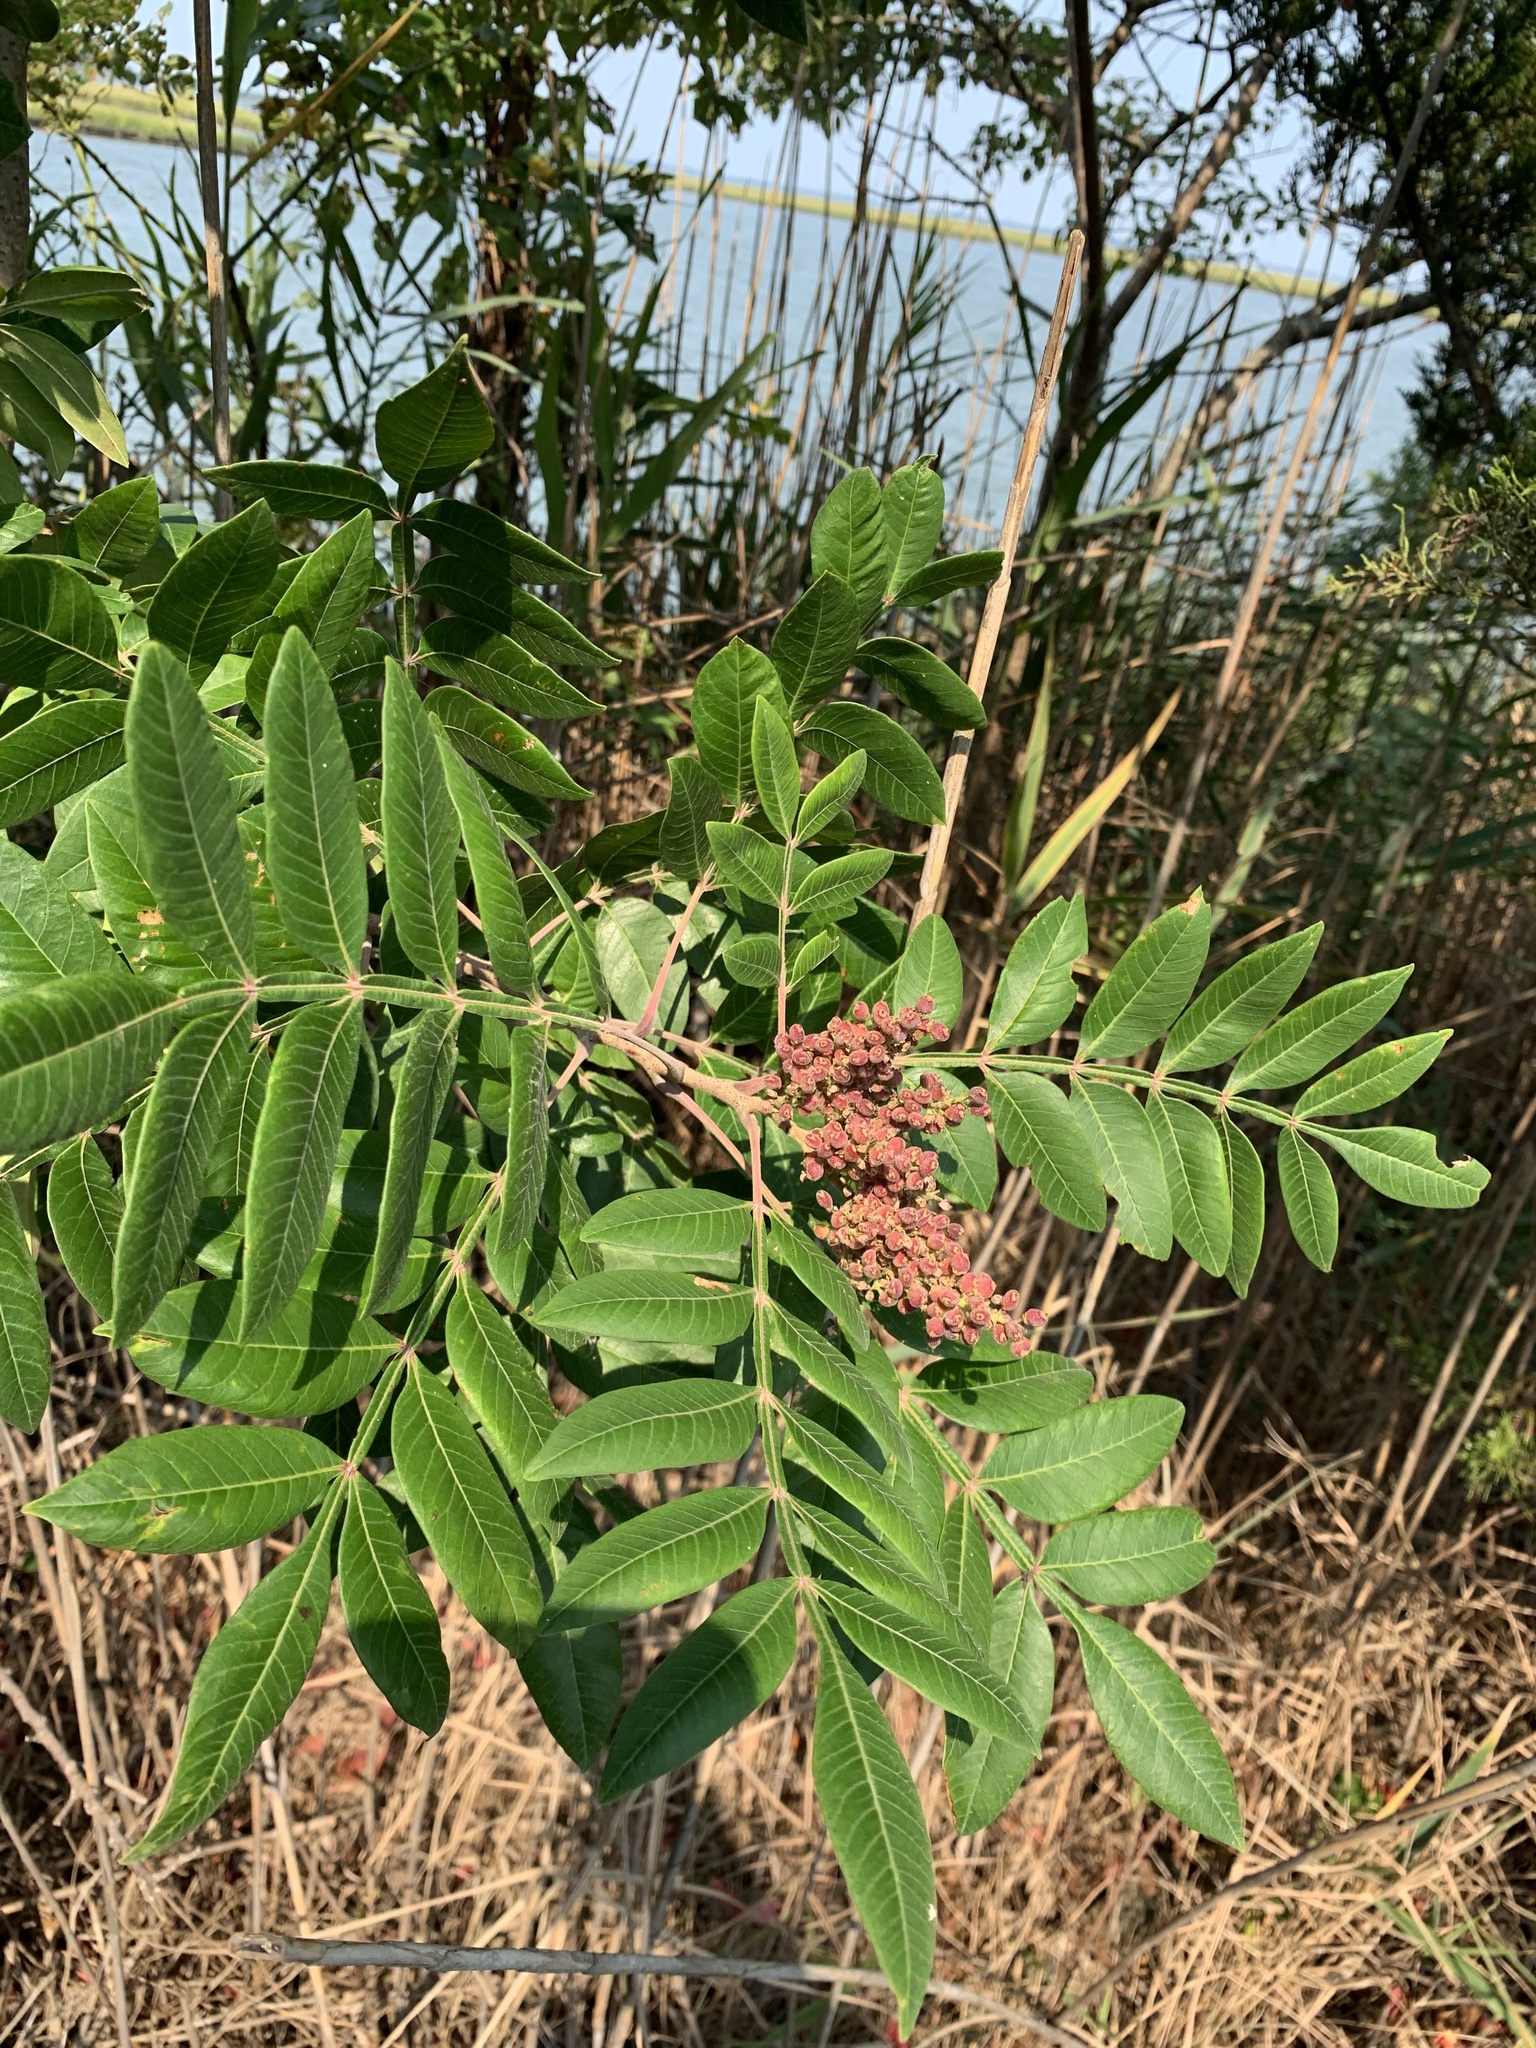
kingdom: Plantae
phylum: Tracheophyta
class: Magnoliopsida
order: Sapindales
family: Anacardiaceae
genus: Rhus
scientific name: Rhus copallina
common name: Shining sumac
